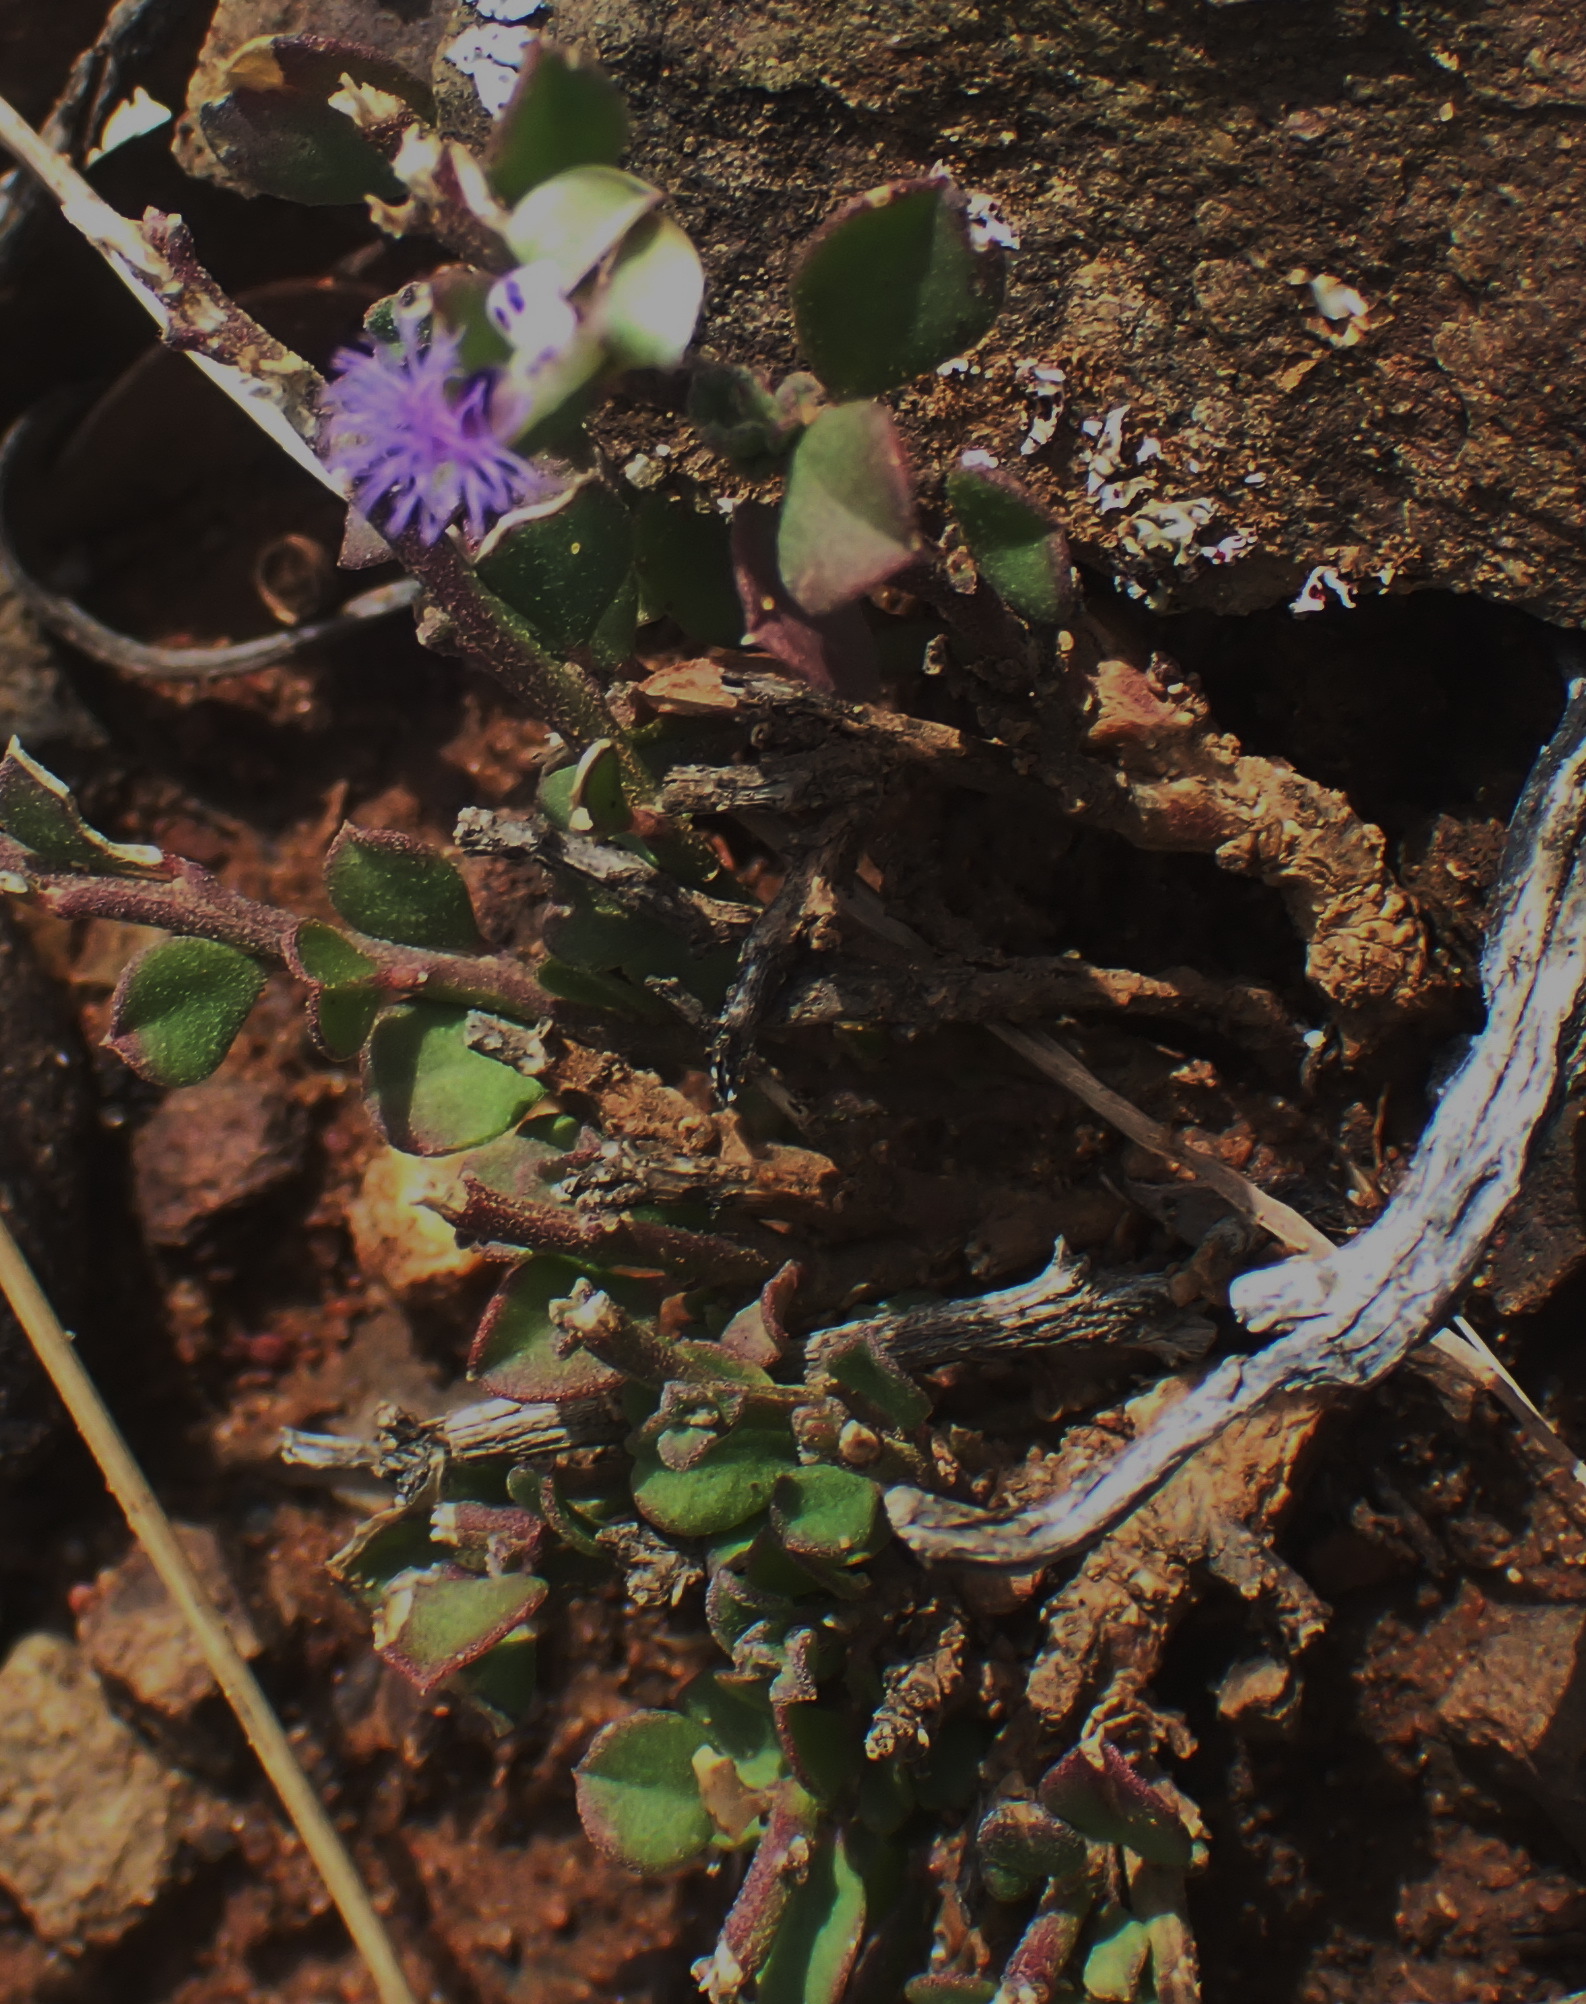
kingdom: Plantae
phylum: Tracheophyta
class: Magnoliopsida
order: Fabales
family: Polygalaceae
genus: Polygala
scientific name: Polygala asbestina
